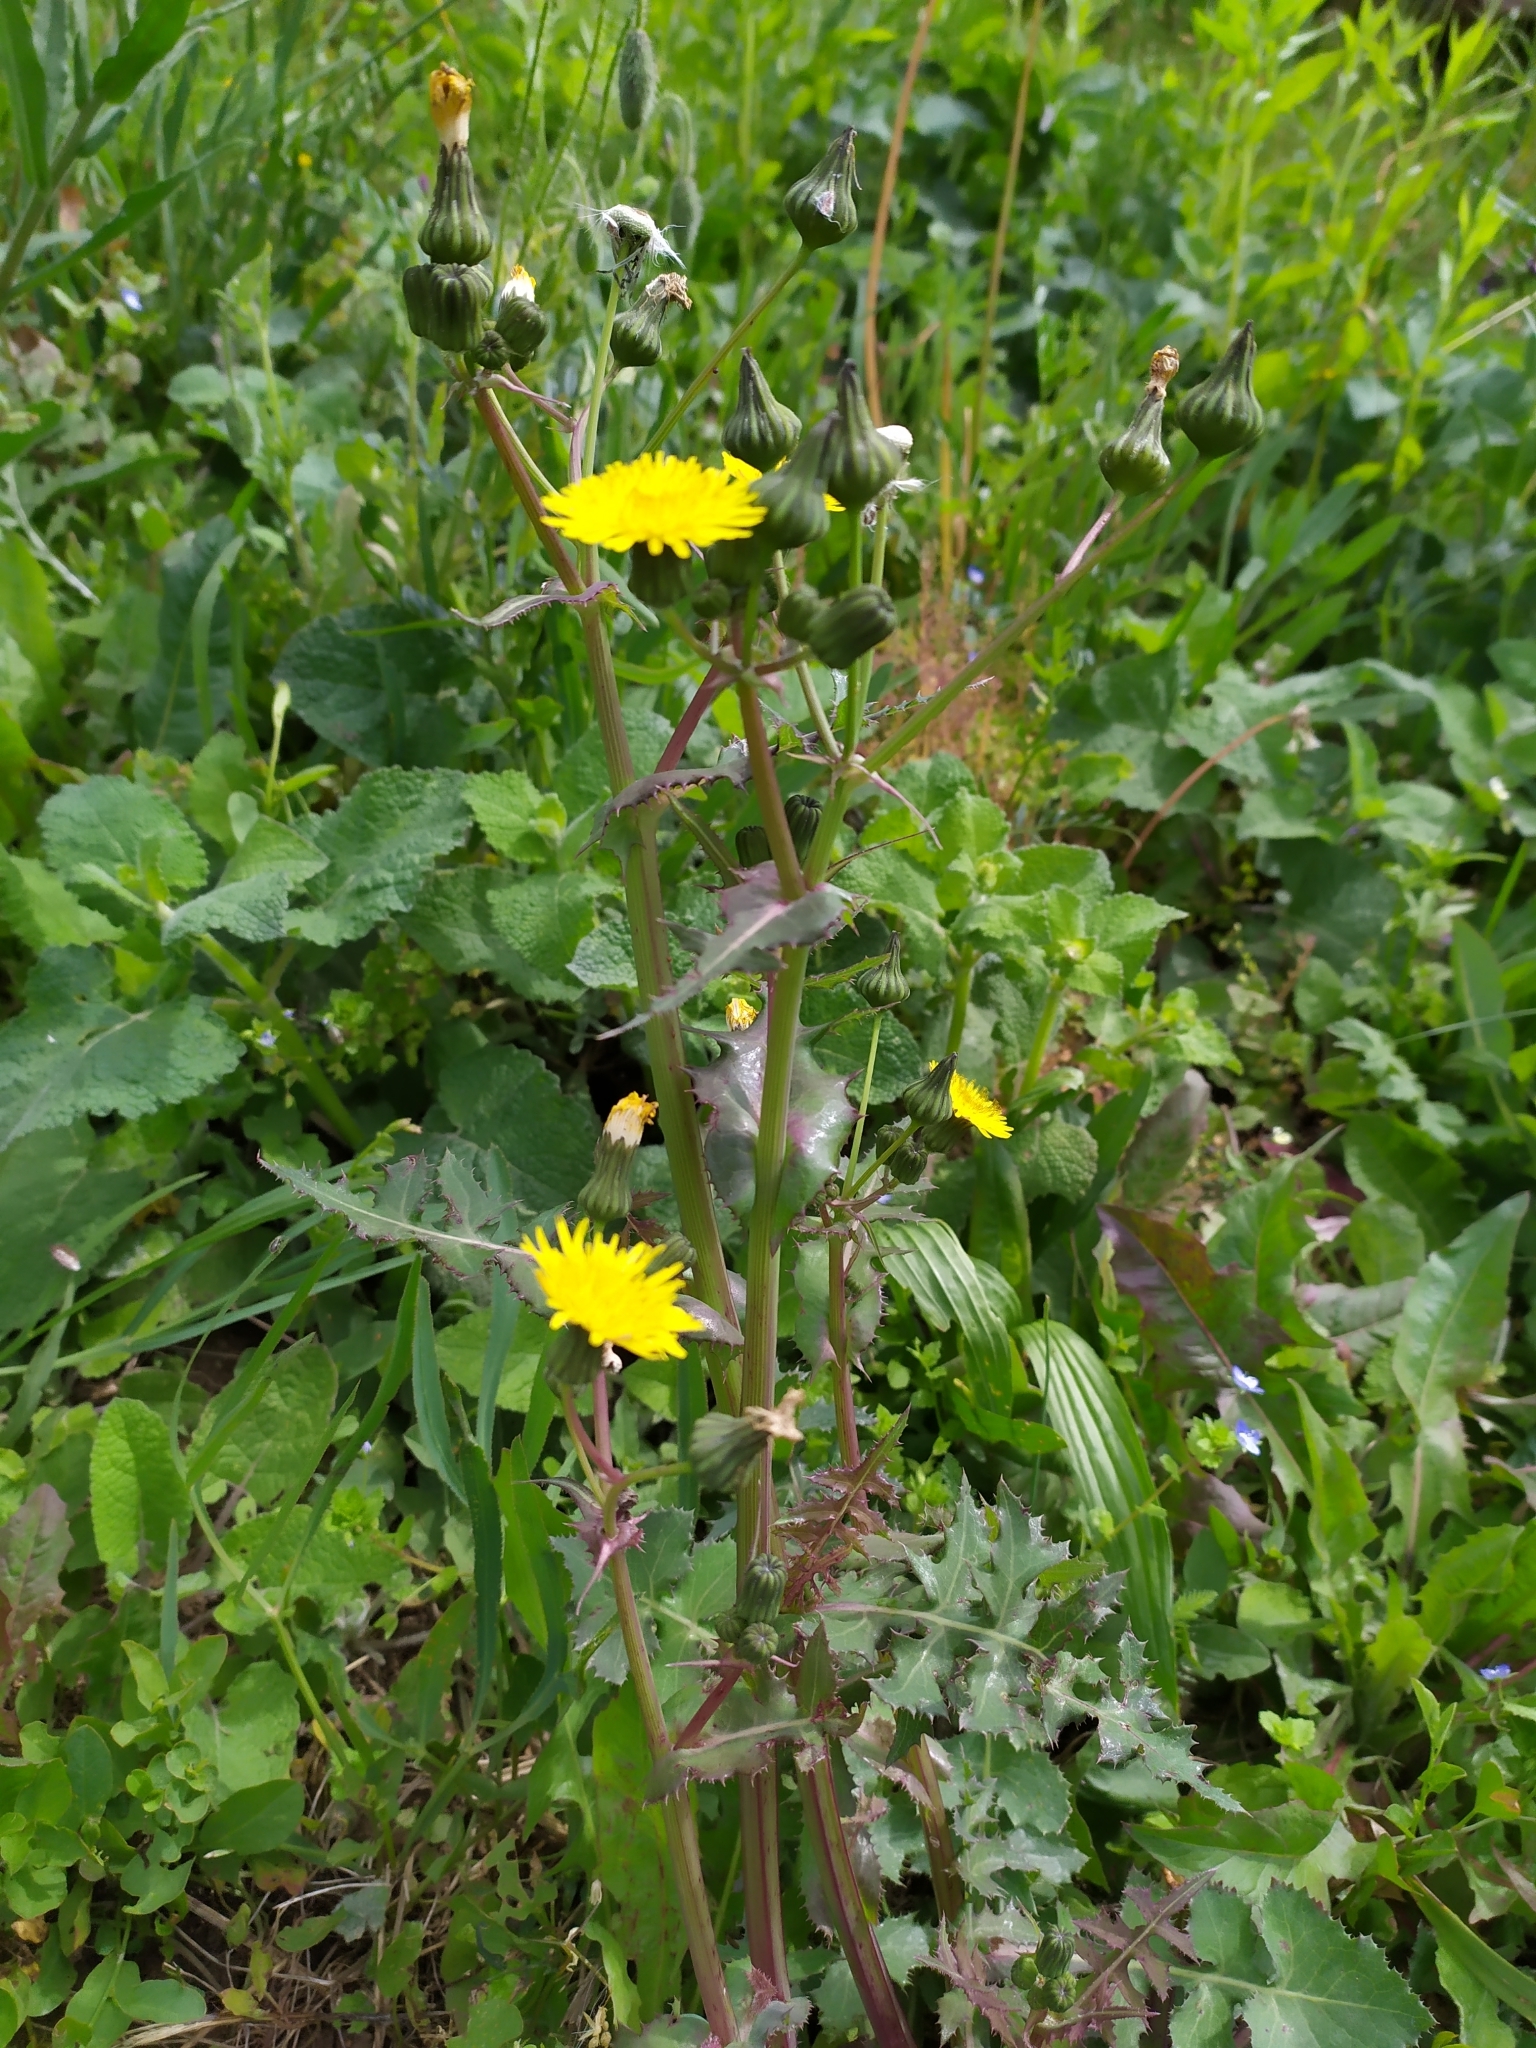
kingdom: Plantae
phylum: Tracheophyta
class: Magnoliopsida
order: Asterales
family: Asteraceae
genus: Sonchus
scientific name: Sonchus oleraceus
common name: Common sowthistle
